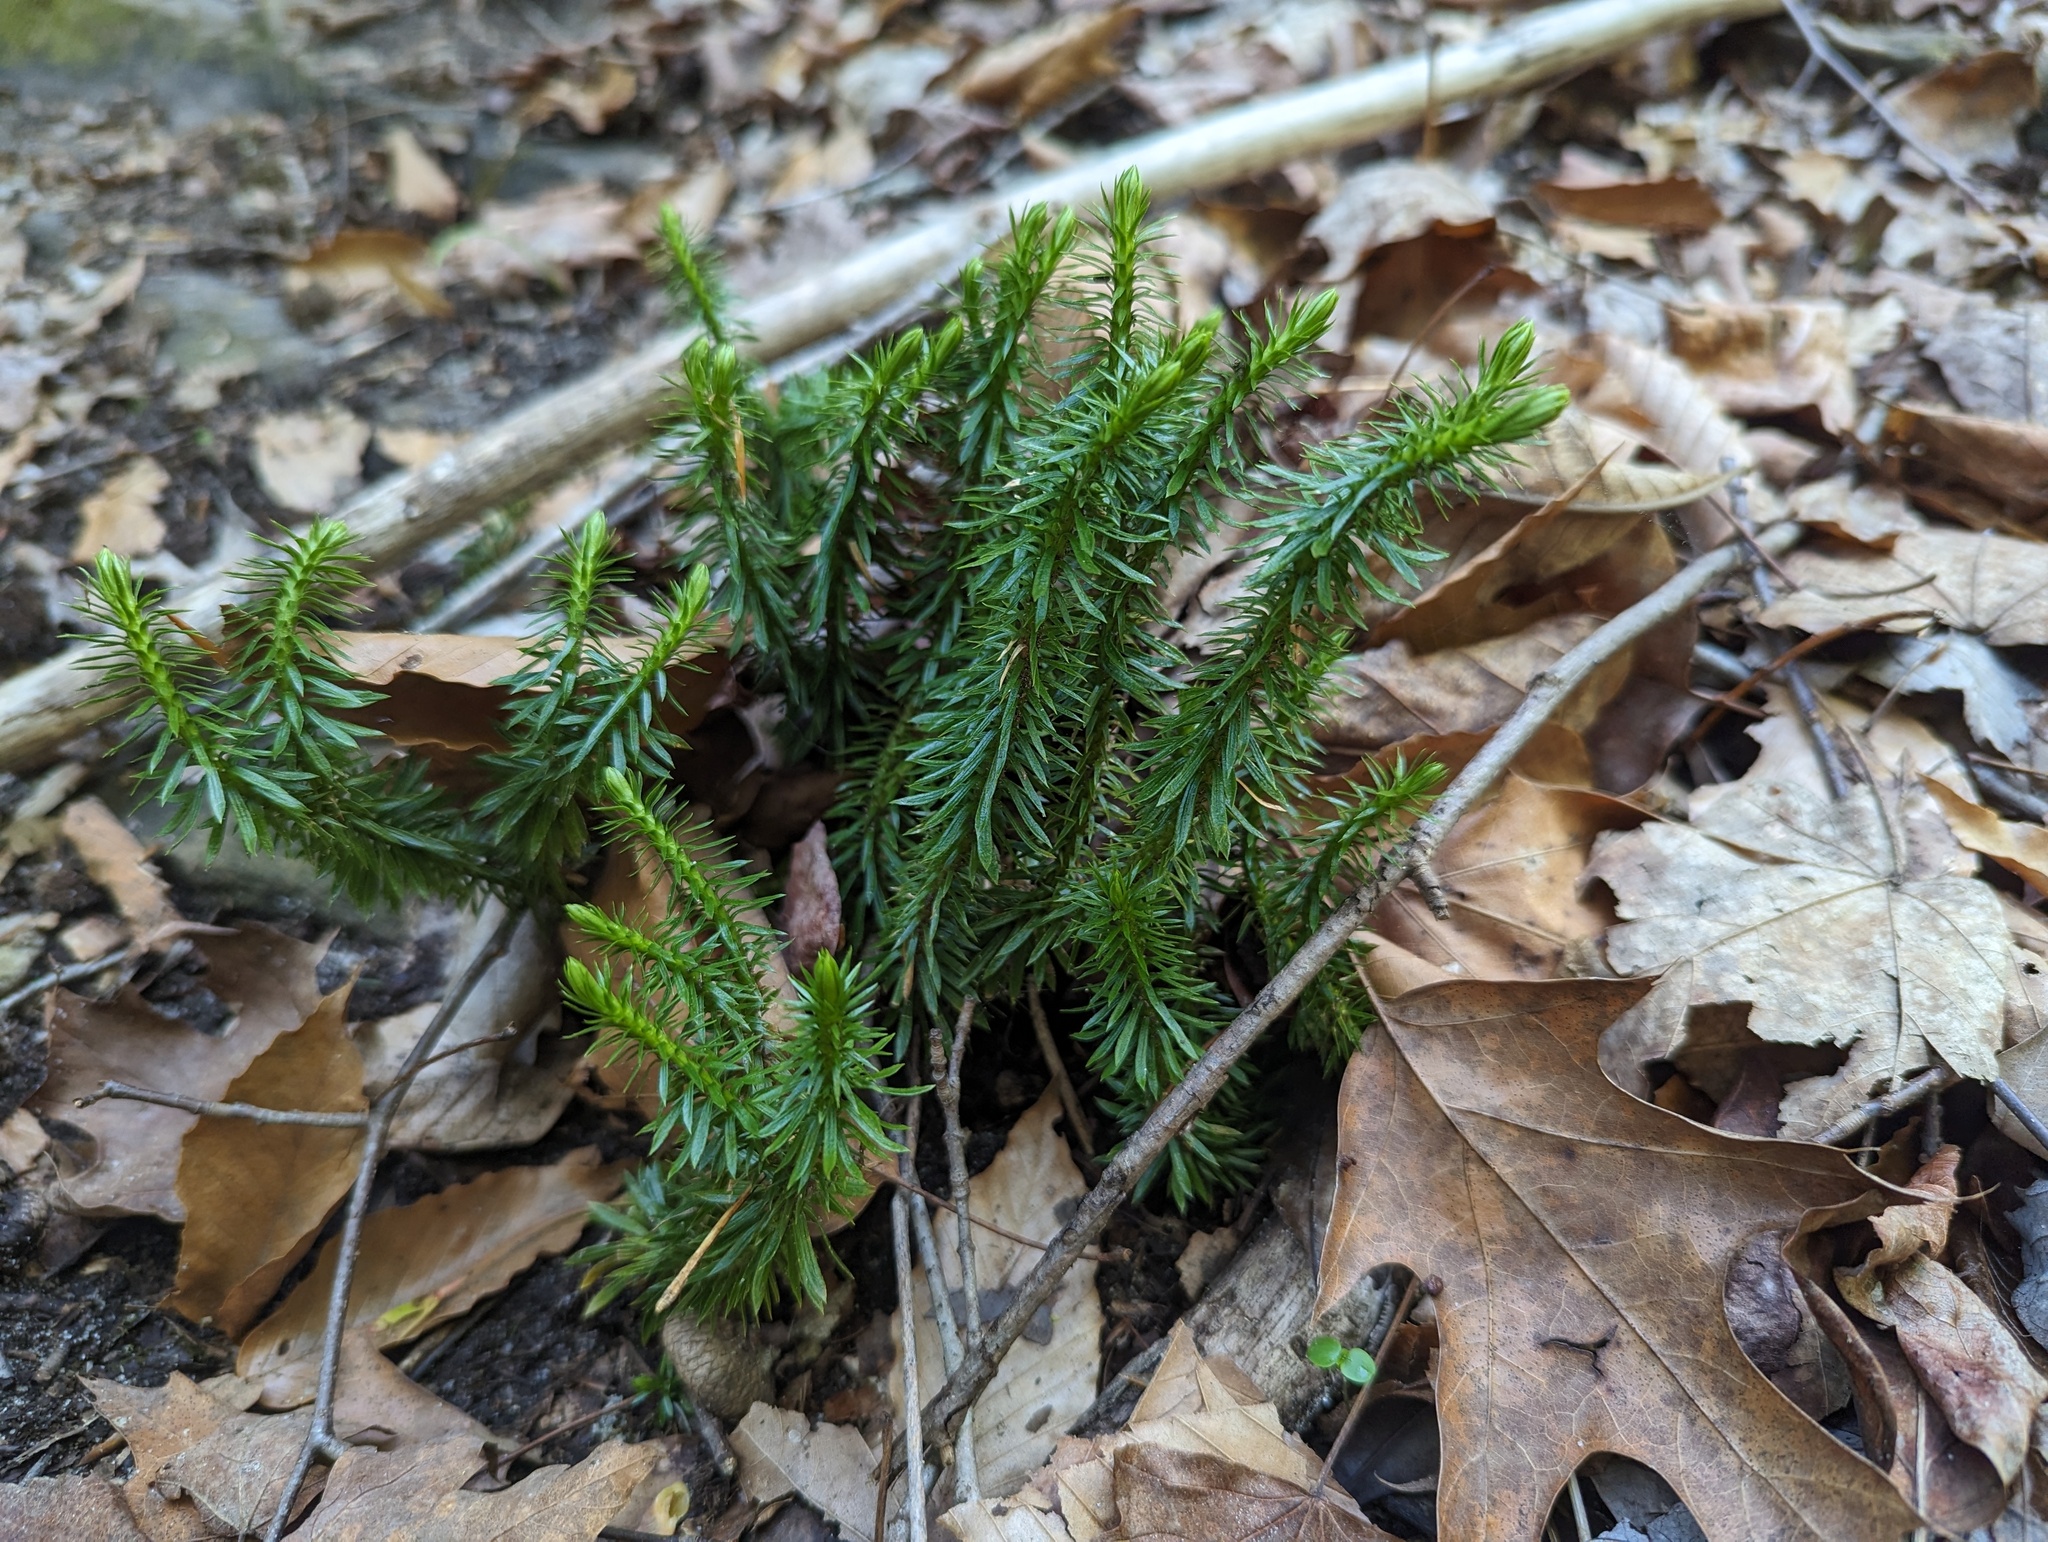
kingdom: Plantae
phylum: Tracheophyta
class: Lycopodiopsida
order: Lycopodiales
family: Lycopodiaceae
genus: Huperzia
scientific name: Huperzia lucidula
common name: Shining clubmoss
